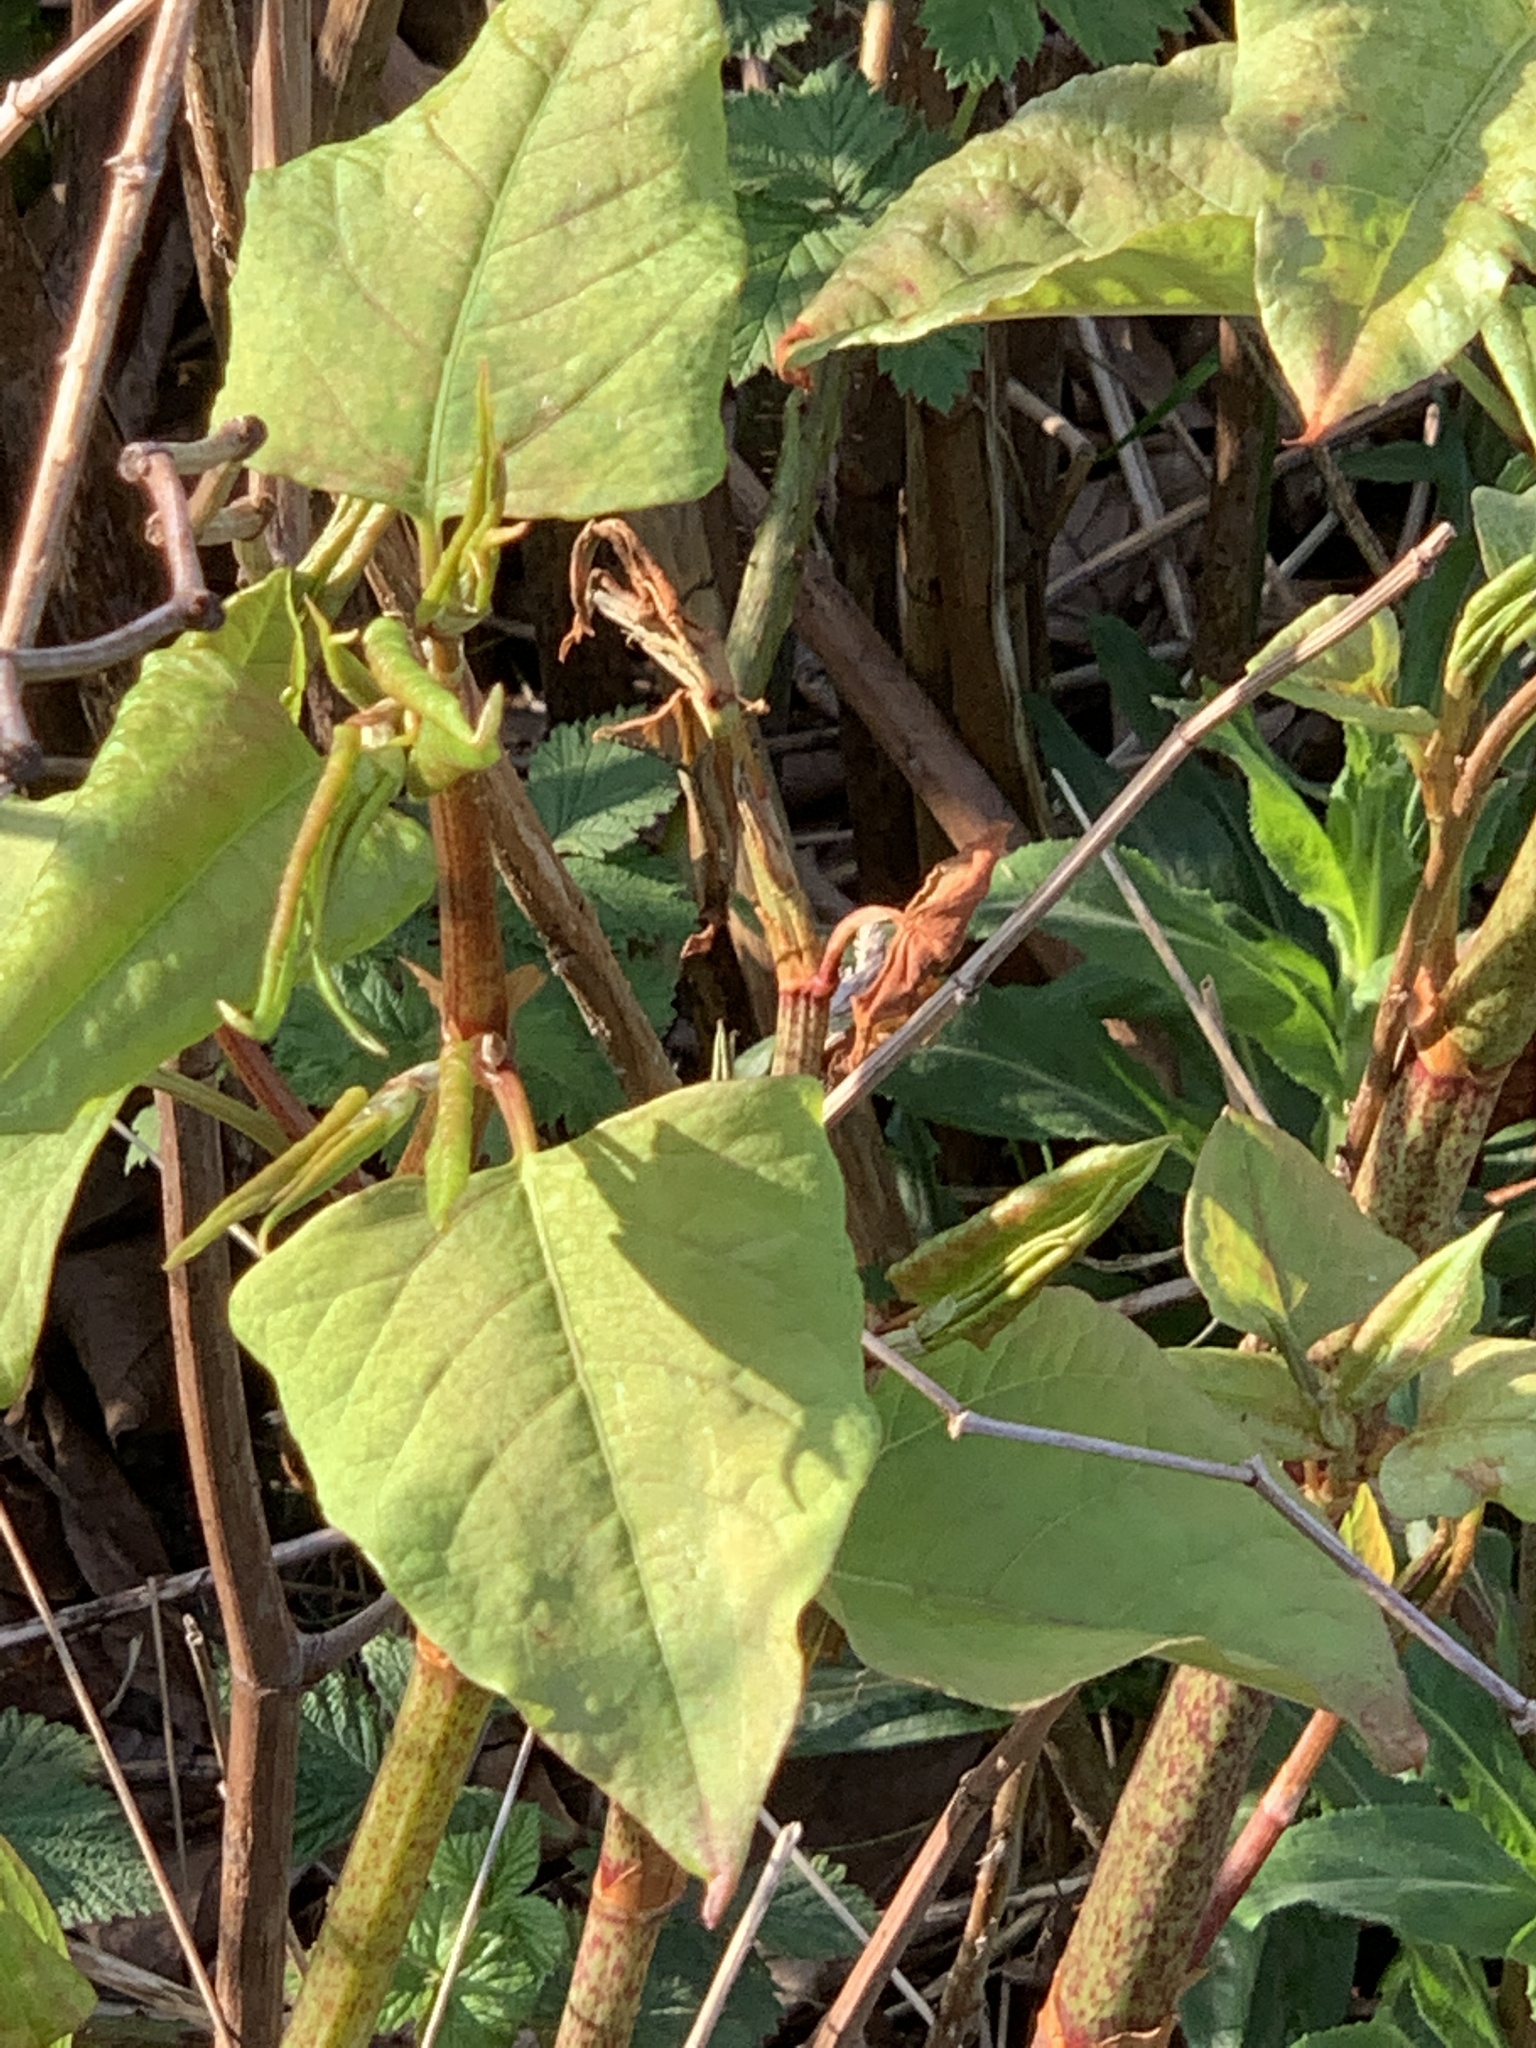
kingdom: Plantae
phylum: Tracheophyta
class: Magnoliopsida
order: Caryophyllales
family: Polygonaceae
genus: Reynoutria
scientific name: Reynoutria japonica
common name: Japanese knotweed
